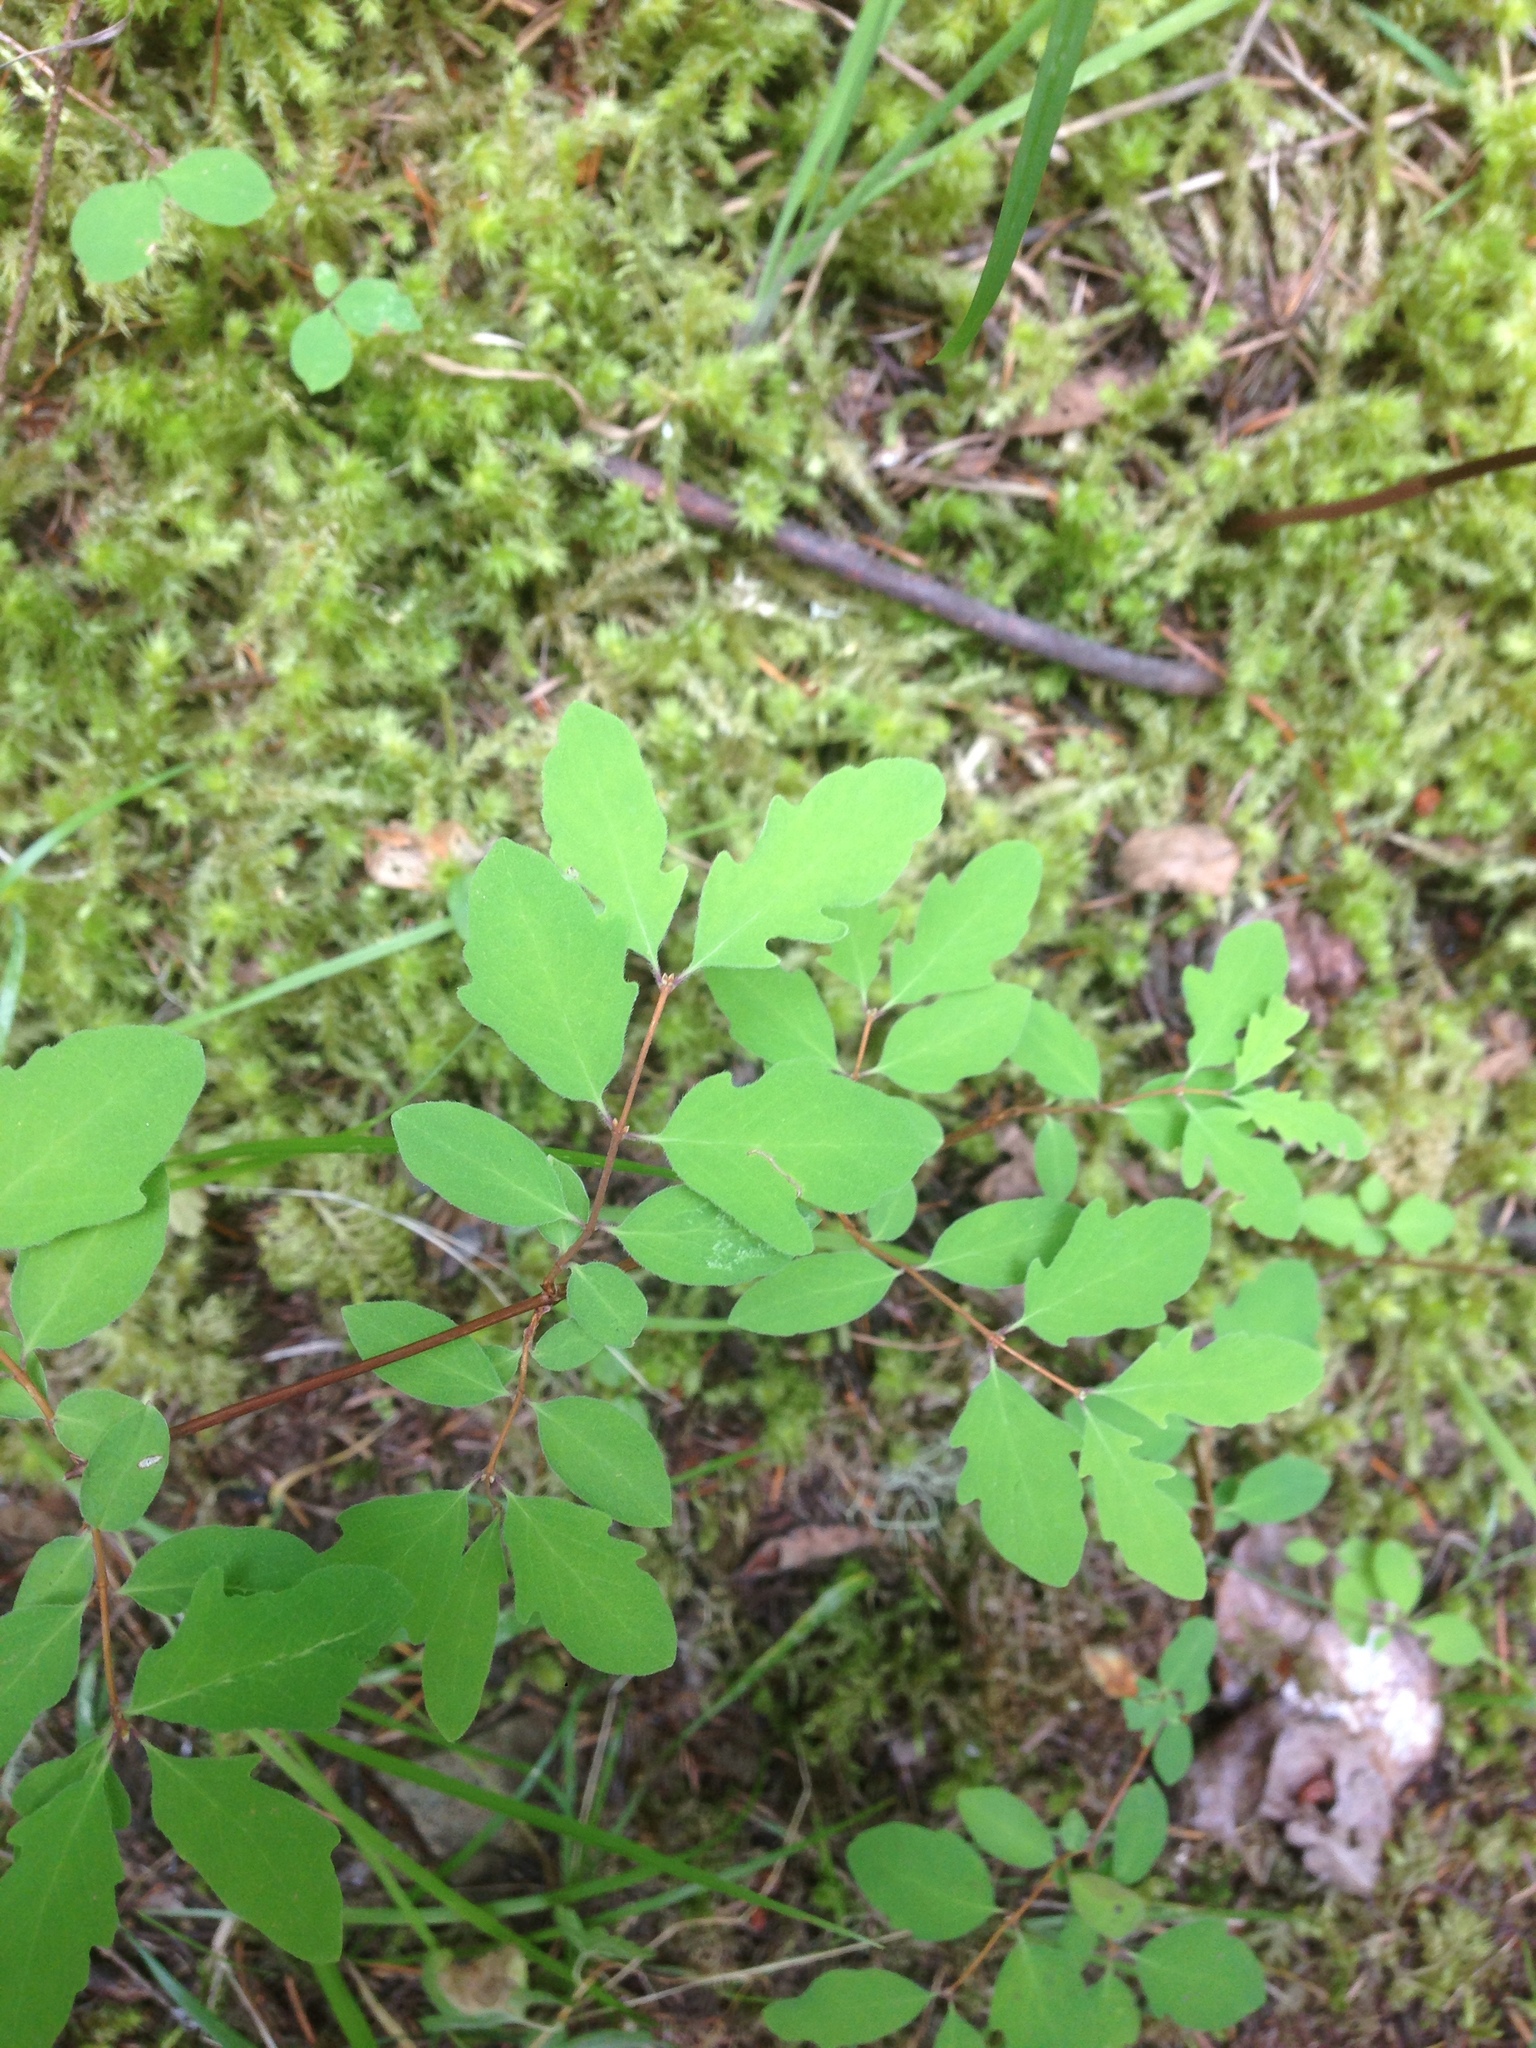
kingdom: Plantae
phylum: Tracheophyta
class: Magnoliopsida
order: Dipsacales
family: Caprifoliaceae
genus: Symphoricarpos
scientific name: Symphoricarpos mollis
